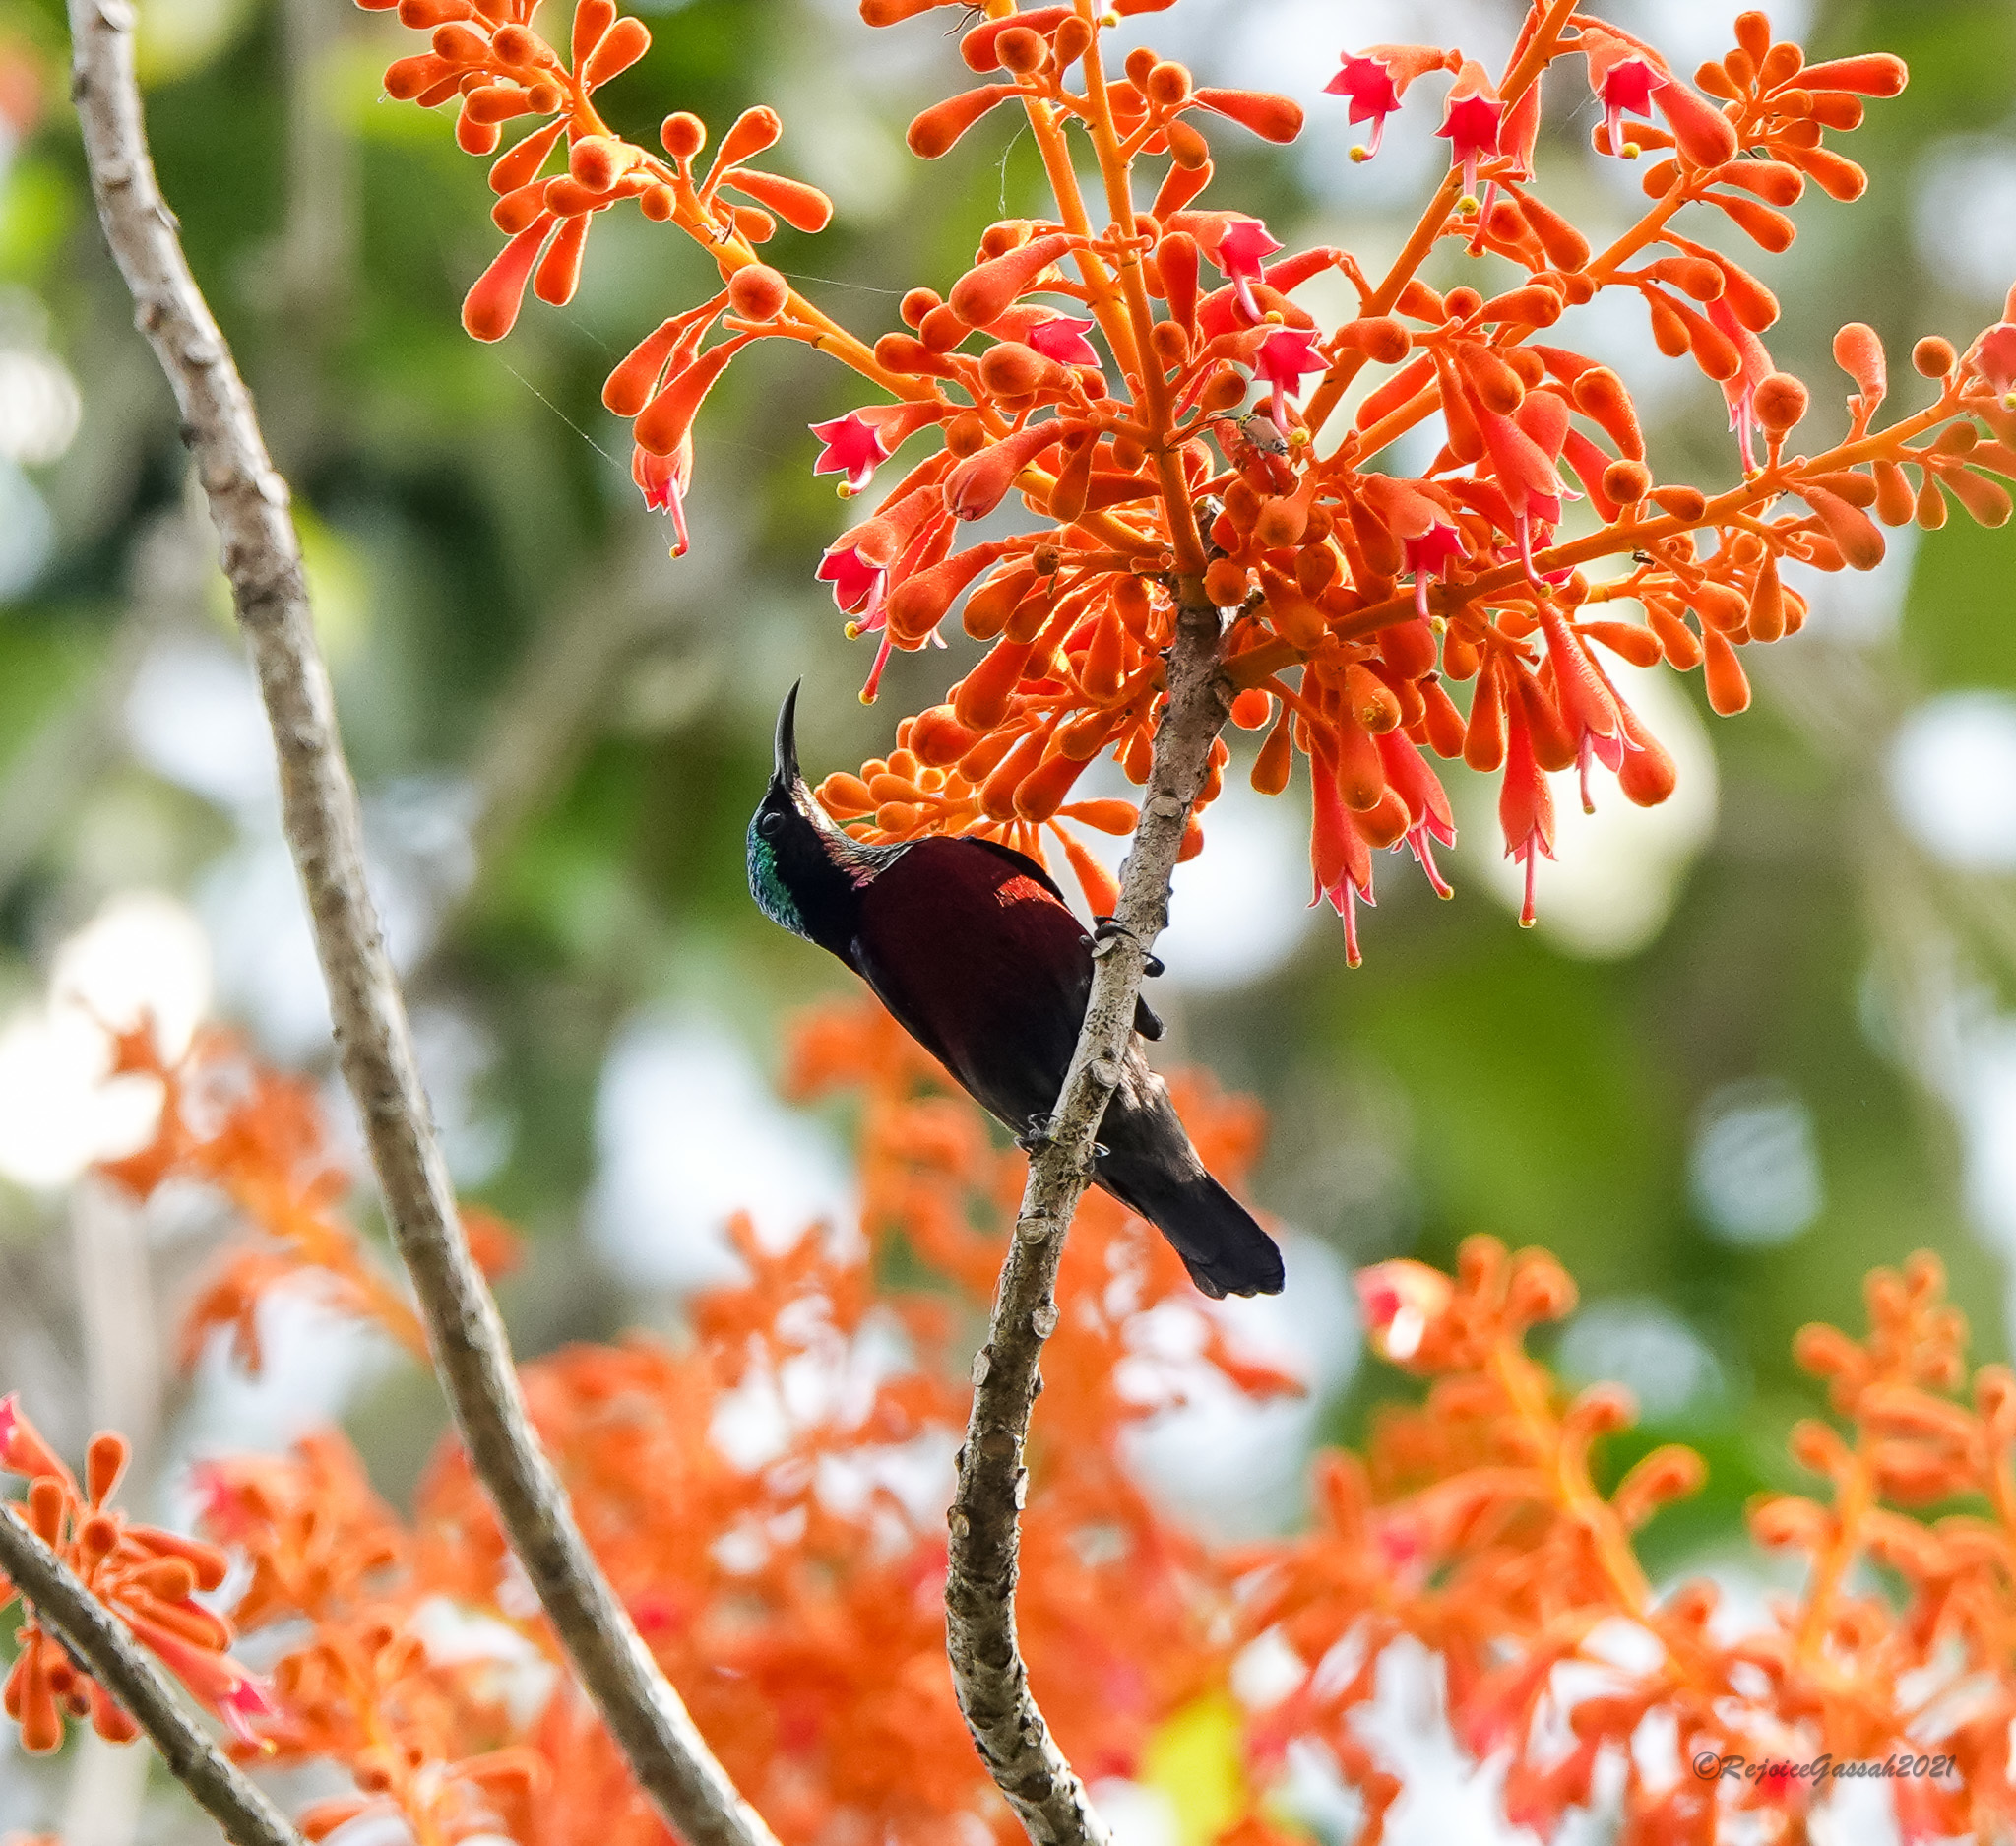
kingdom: Animalia
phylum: Chordata
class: Aves
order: Passeriformes
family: Nectariniidae
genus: Leptocoma
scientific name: Leptocoma brasiliana
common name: Van hasselt's sunbird
